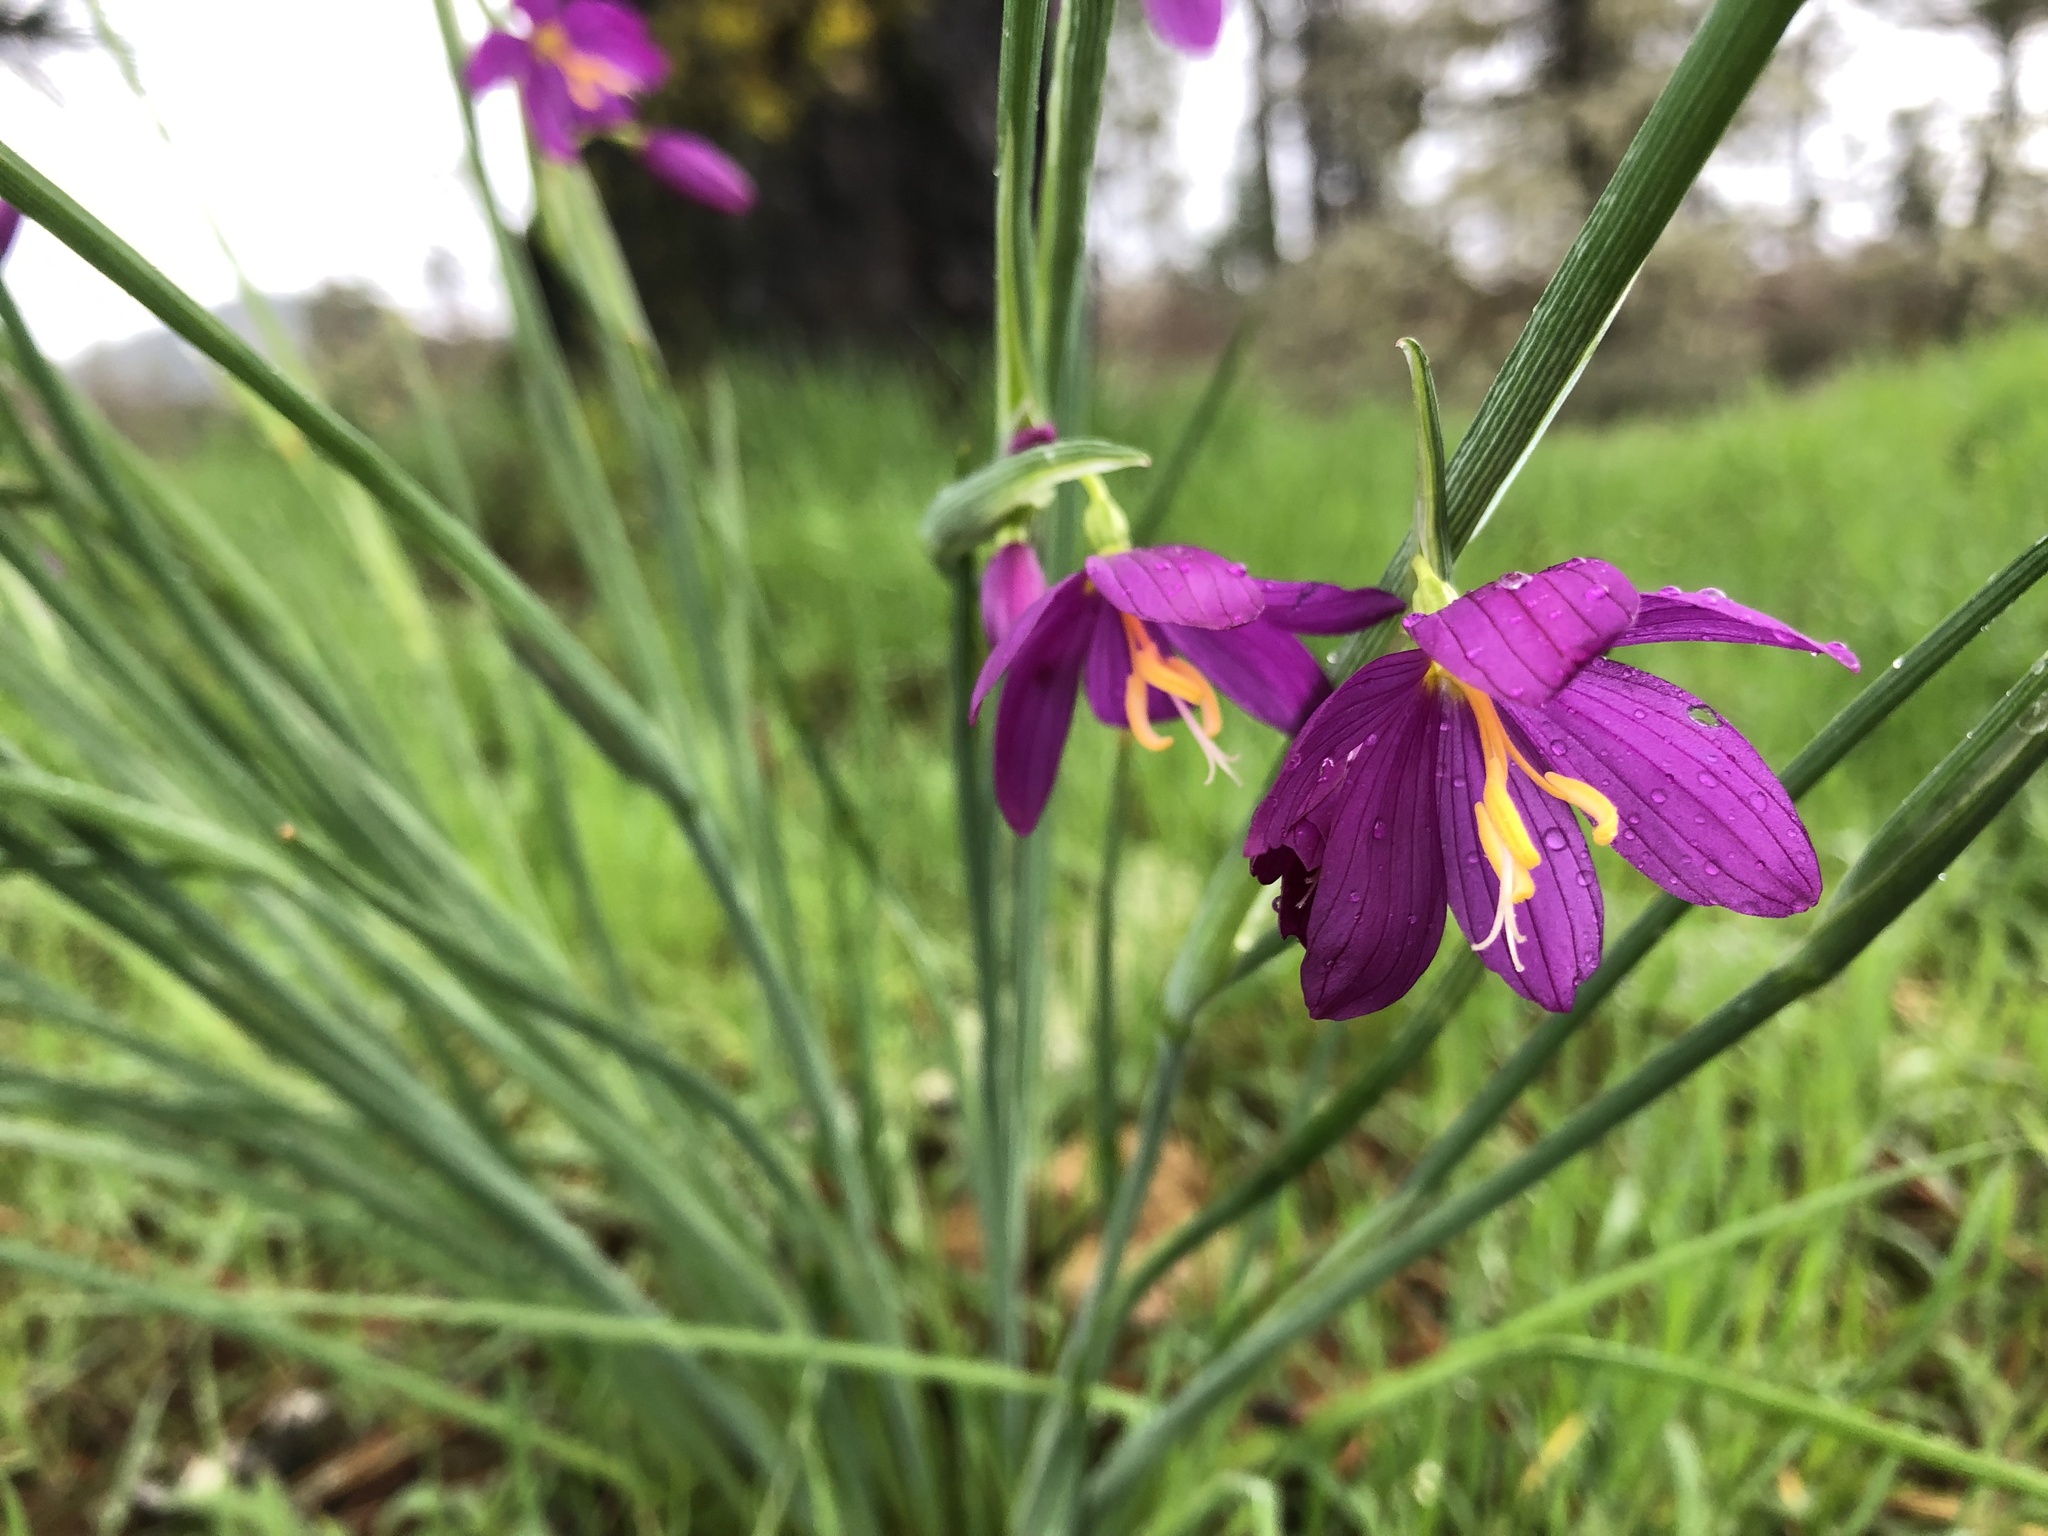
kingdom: Plantae
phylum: Tracheophyta
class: Liliopsida
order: Asparagales
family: Iridaceae
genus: Olsynium
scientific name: Olsynium douglasii
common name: Douglas' grasswidow
